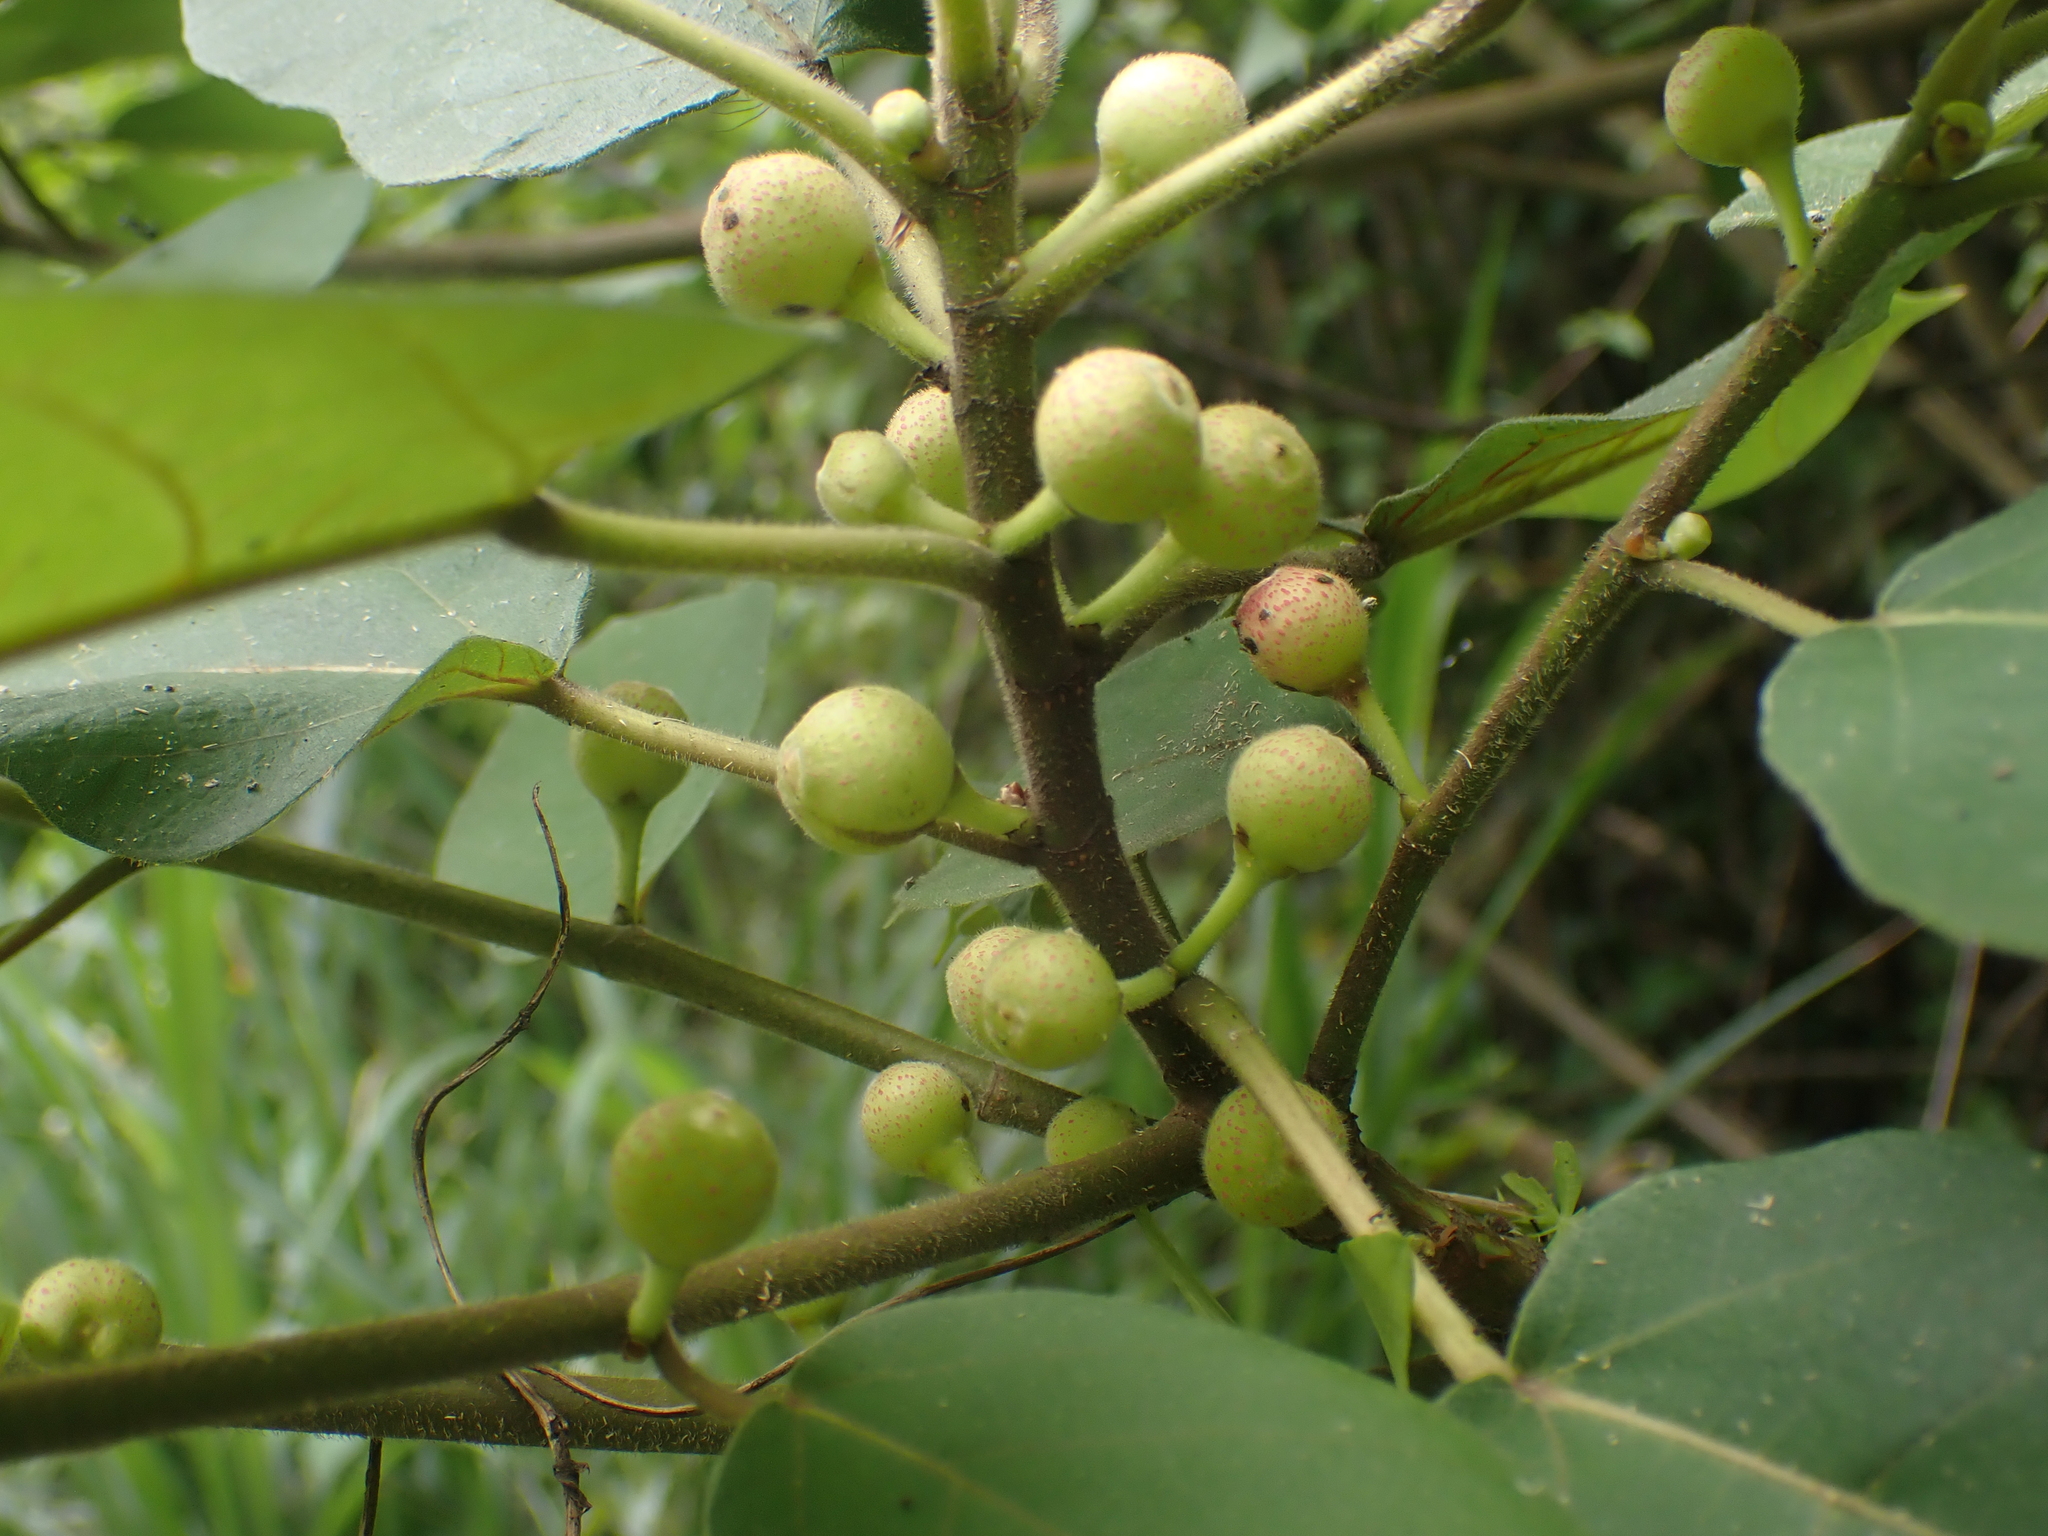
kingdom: Plantae
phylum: Tracheophyta
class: Magnoliopsida
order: Rosales
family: Moraceae
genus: Ficus
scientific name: Ficus erecta
